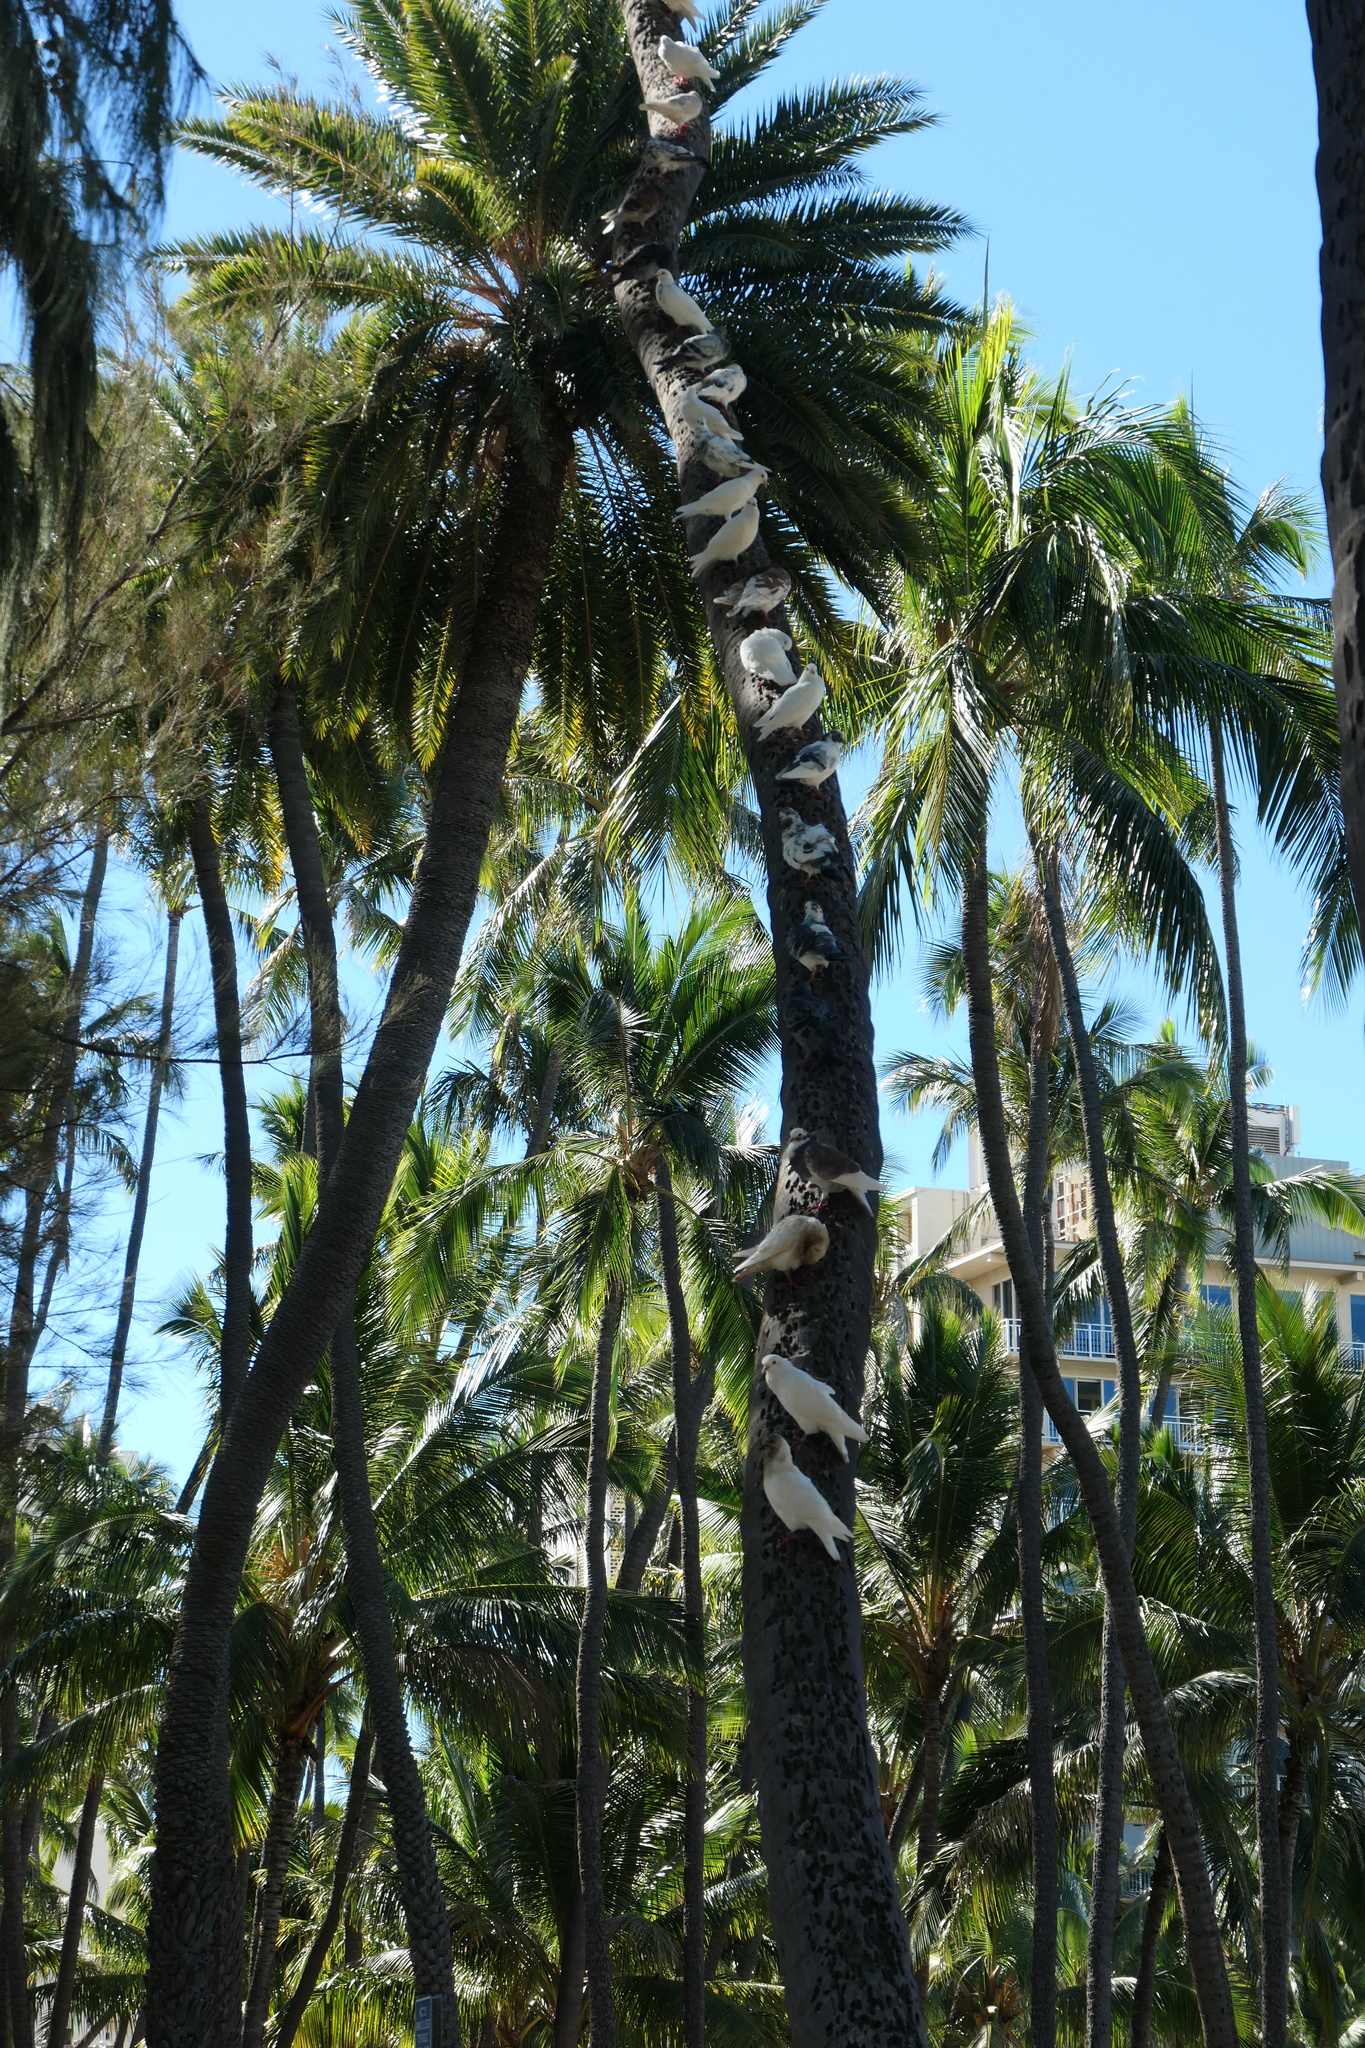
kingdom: Animalia
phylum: Chordata
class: Aves
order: Columbiformes
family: Columbidae
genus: Columba
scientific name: Columba livia
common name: Rock pigeon
